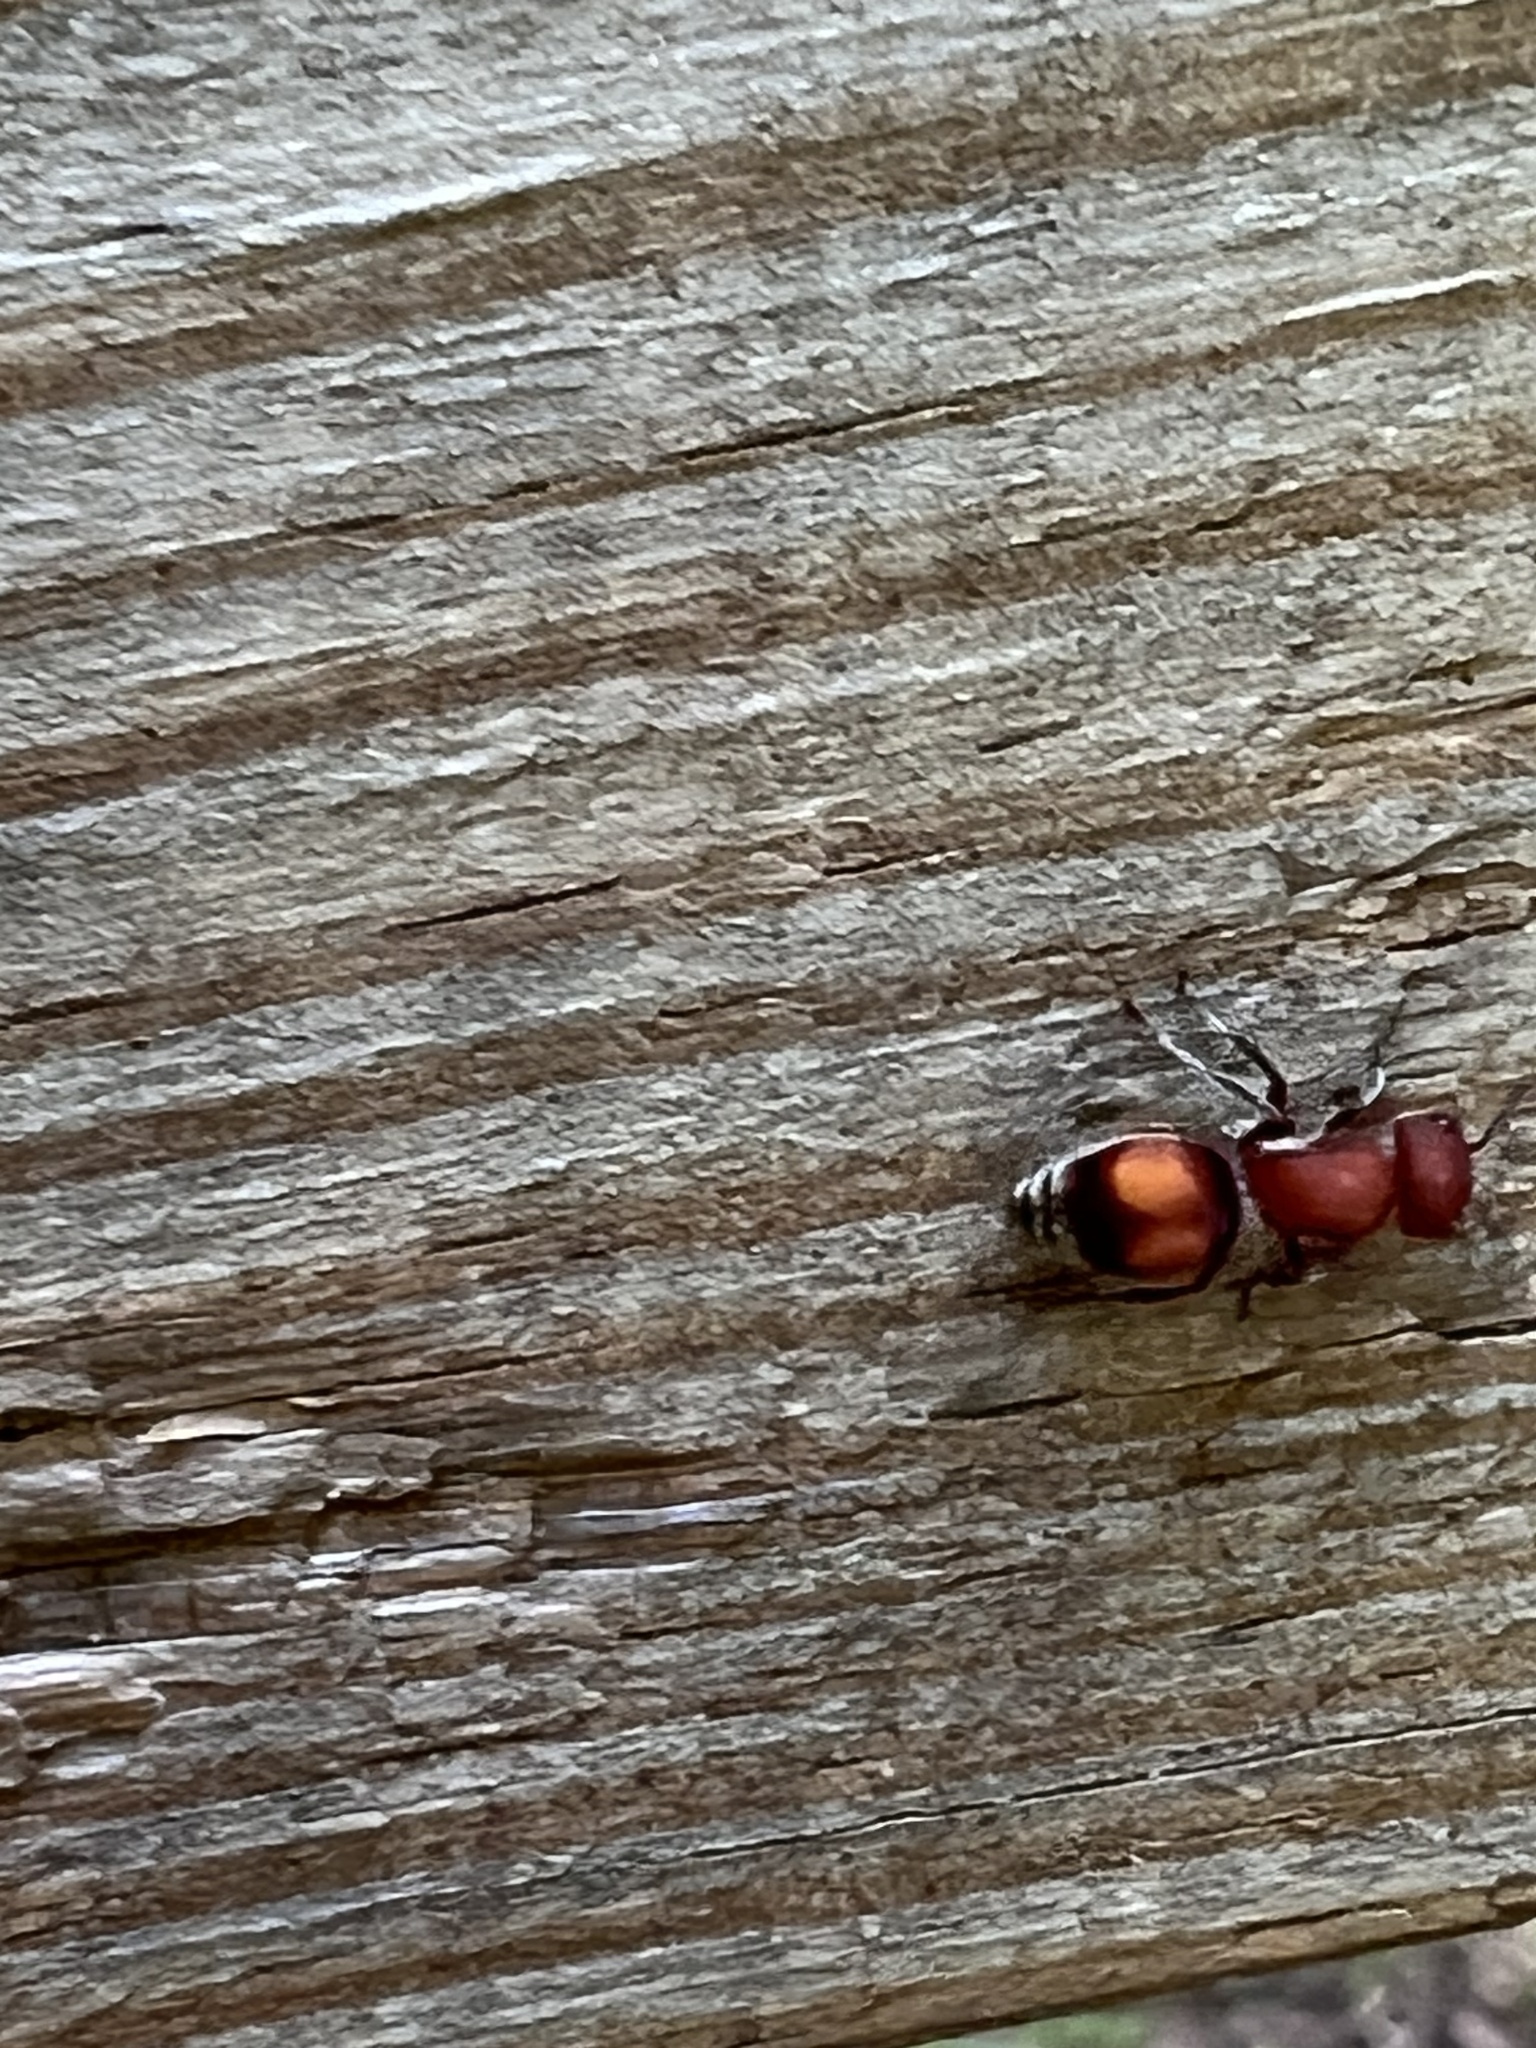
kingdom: Animalia
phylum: Arthropoda
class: Insecta
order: Hymenoptera
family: Mutillidae
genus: Pseudomethoca
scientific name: Pseudomethoca
